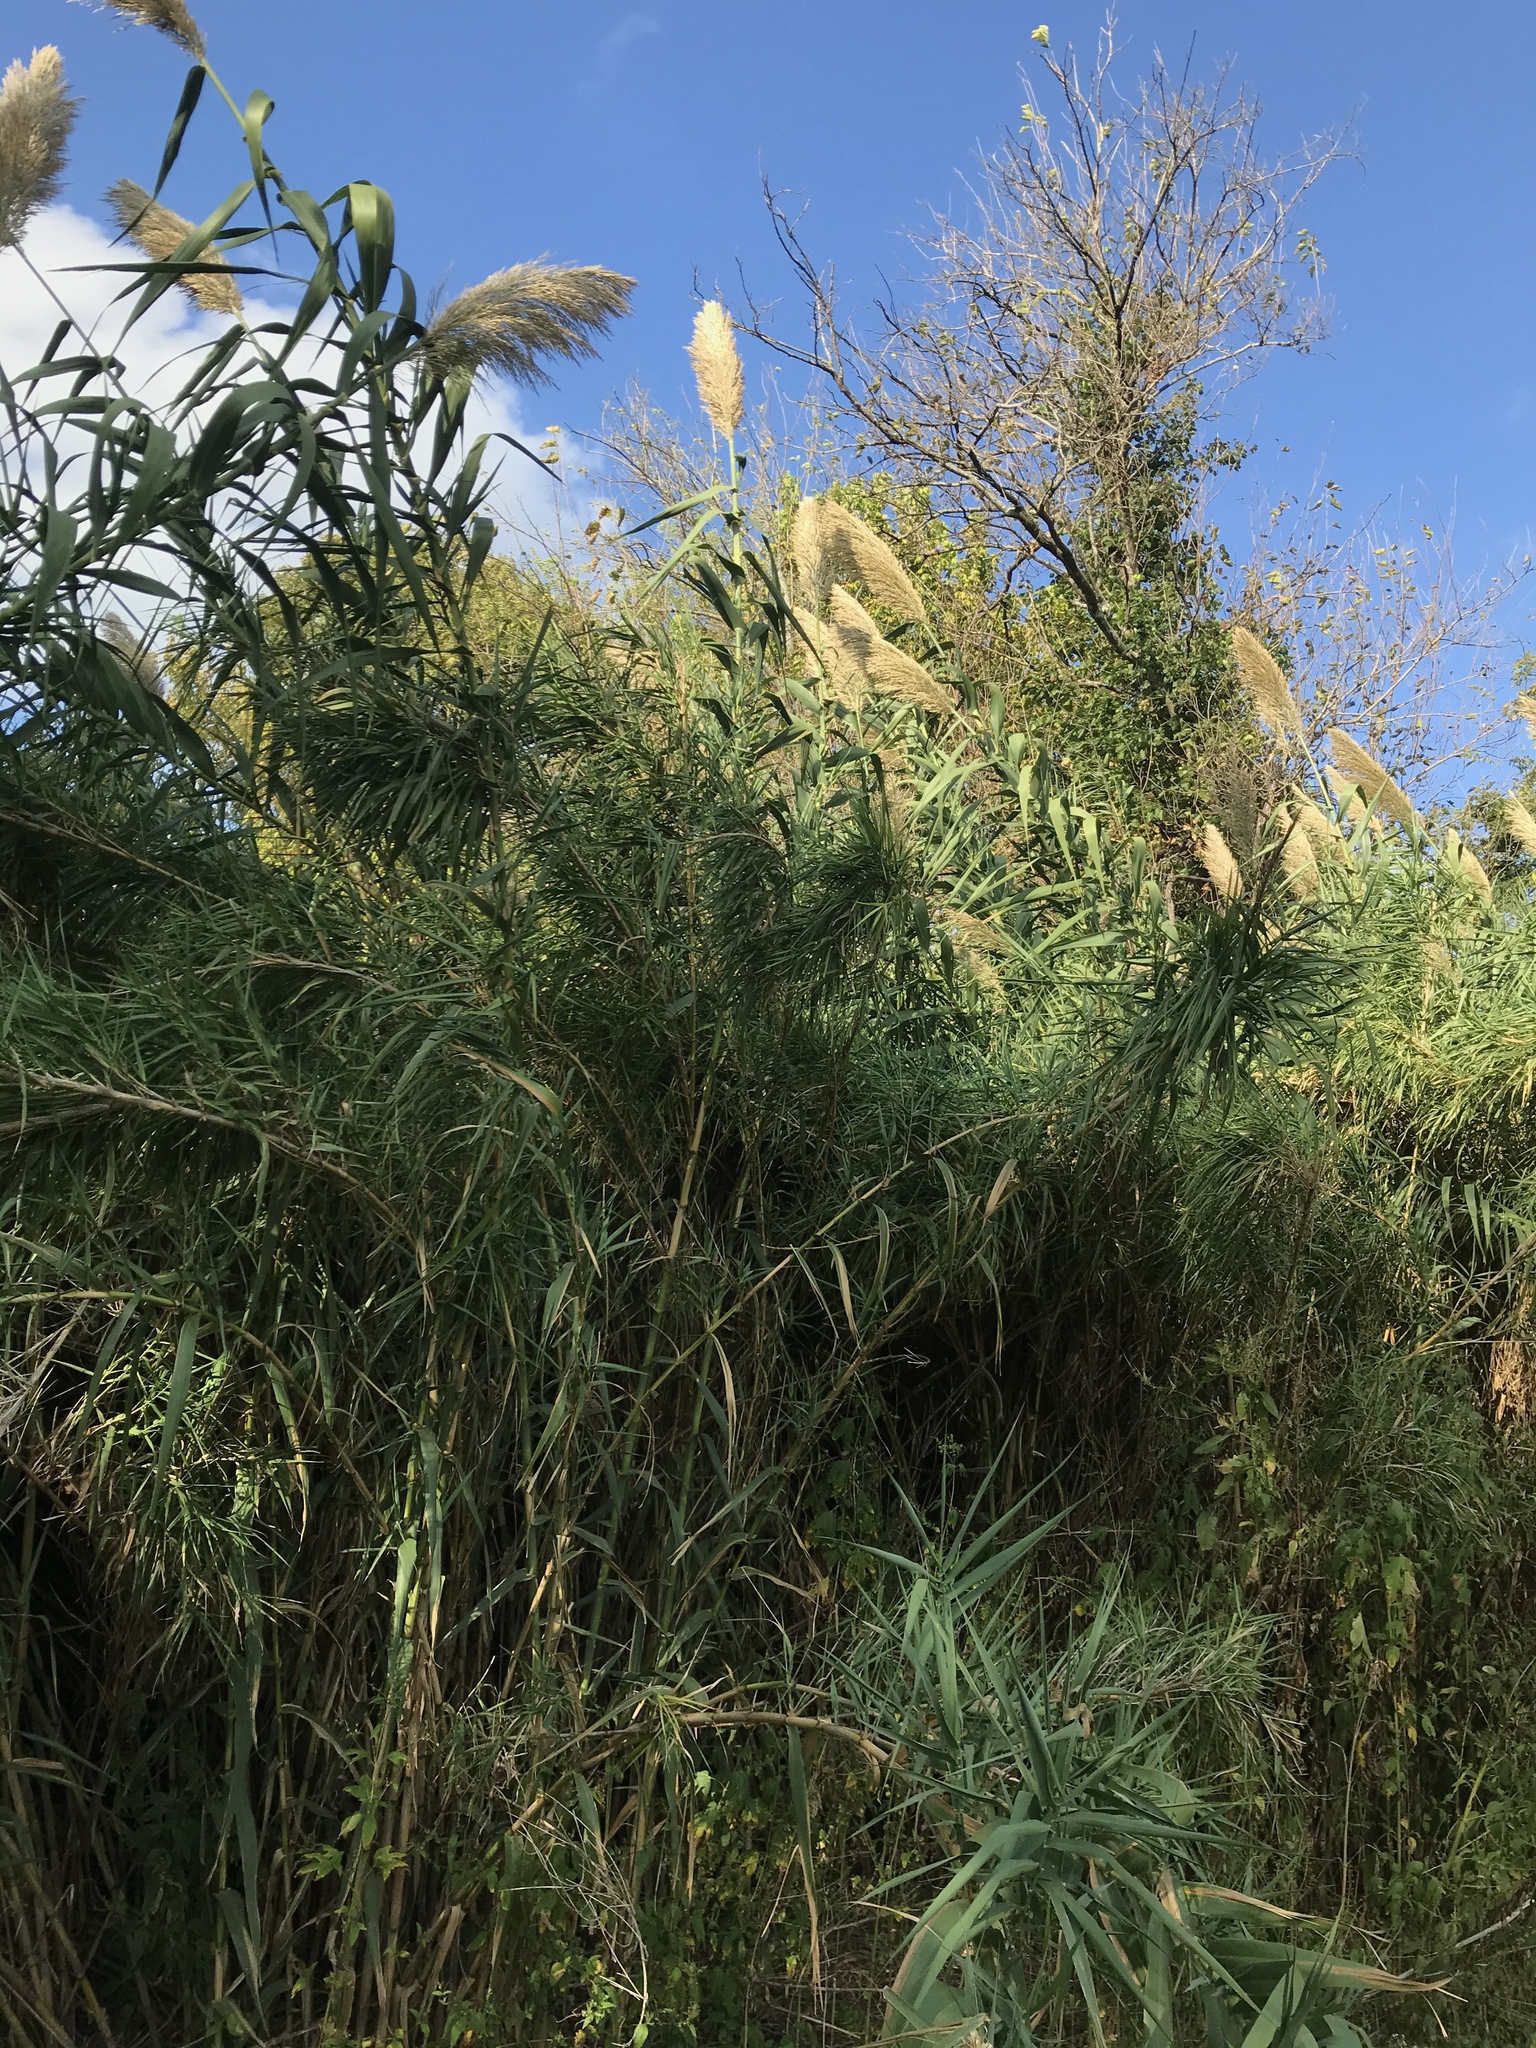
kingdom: Plantae
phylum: Tracheophyta
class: Liliopsida
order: Poales
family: Poaceae
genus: Arundo
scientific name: Arundo donax
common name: Giant reed
